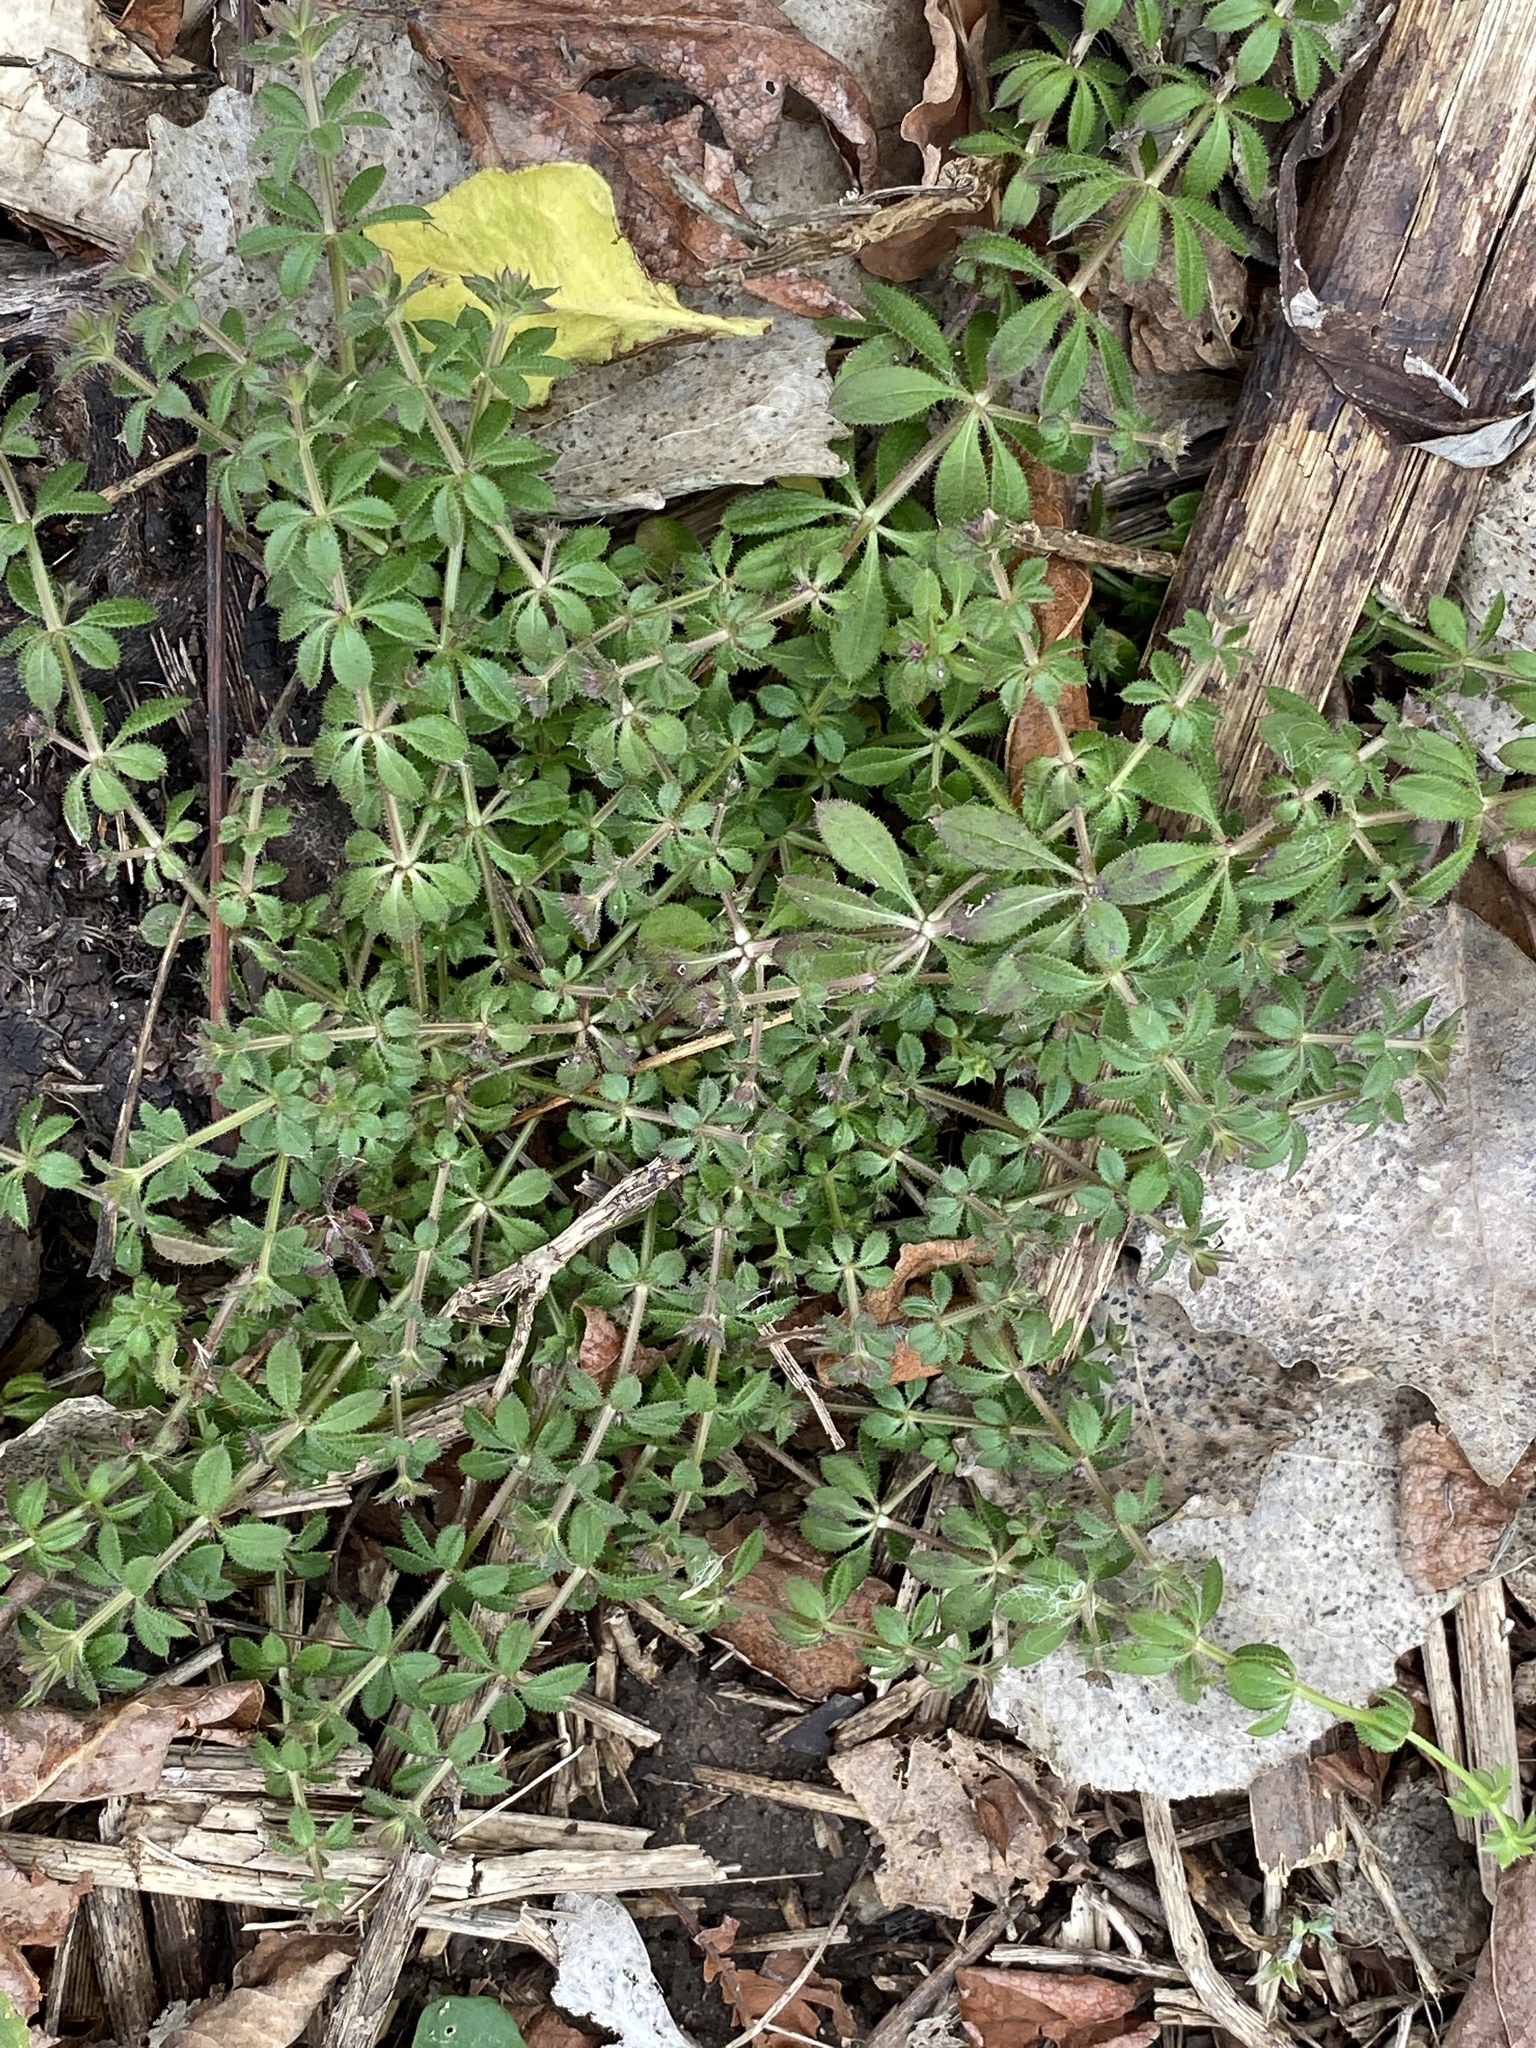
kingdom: Plantae
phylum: Tracheophyta
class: Magnoliopsida
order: Gentianales
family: Rubiaceae
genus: Galium
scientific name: Galium aparine
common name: Cleavers
